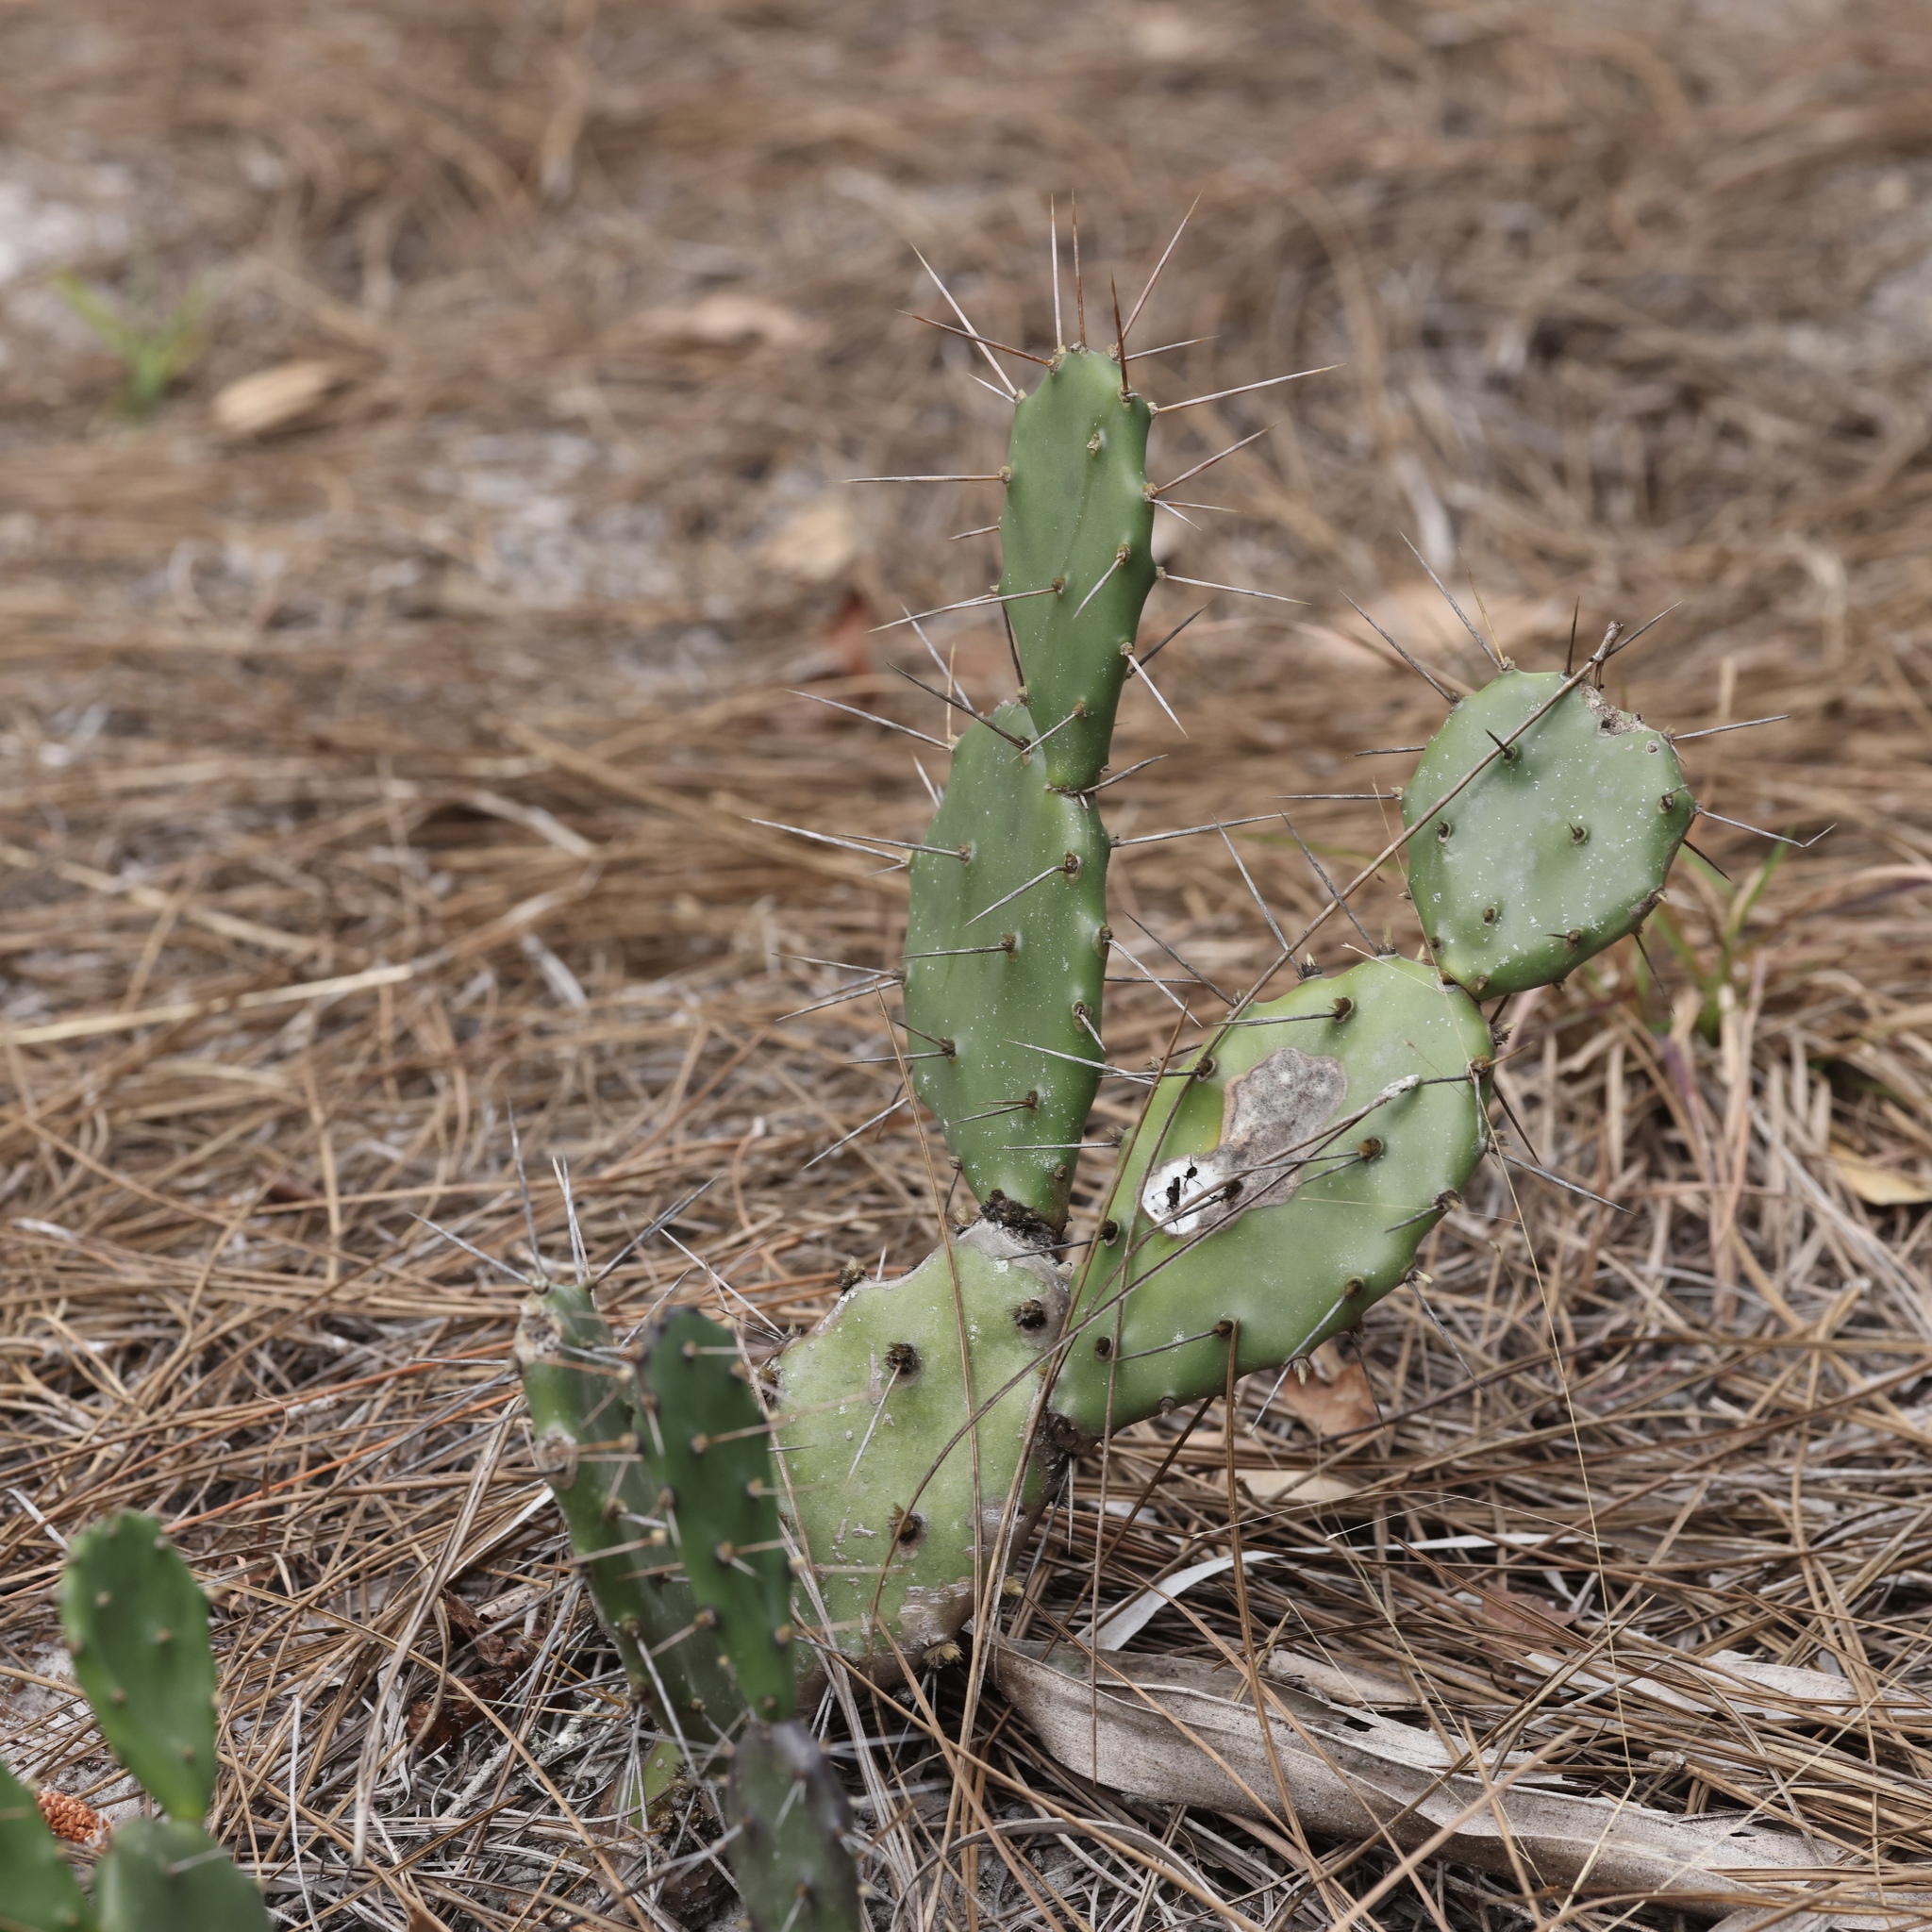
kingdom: Plantae
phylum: Tracheophyta
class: Magnoliopsida
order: Caryophyllales
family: Cactaceae
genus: Opuntia
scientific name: Opuntia austrina
